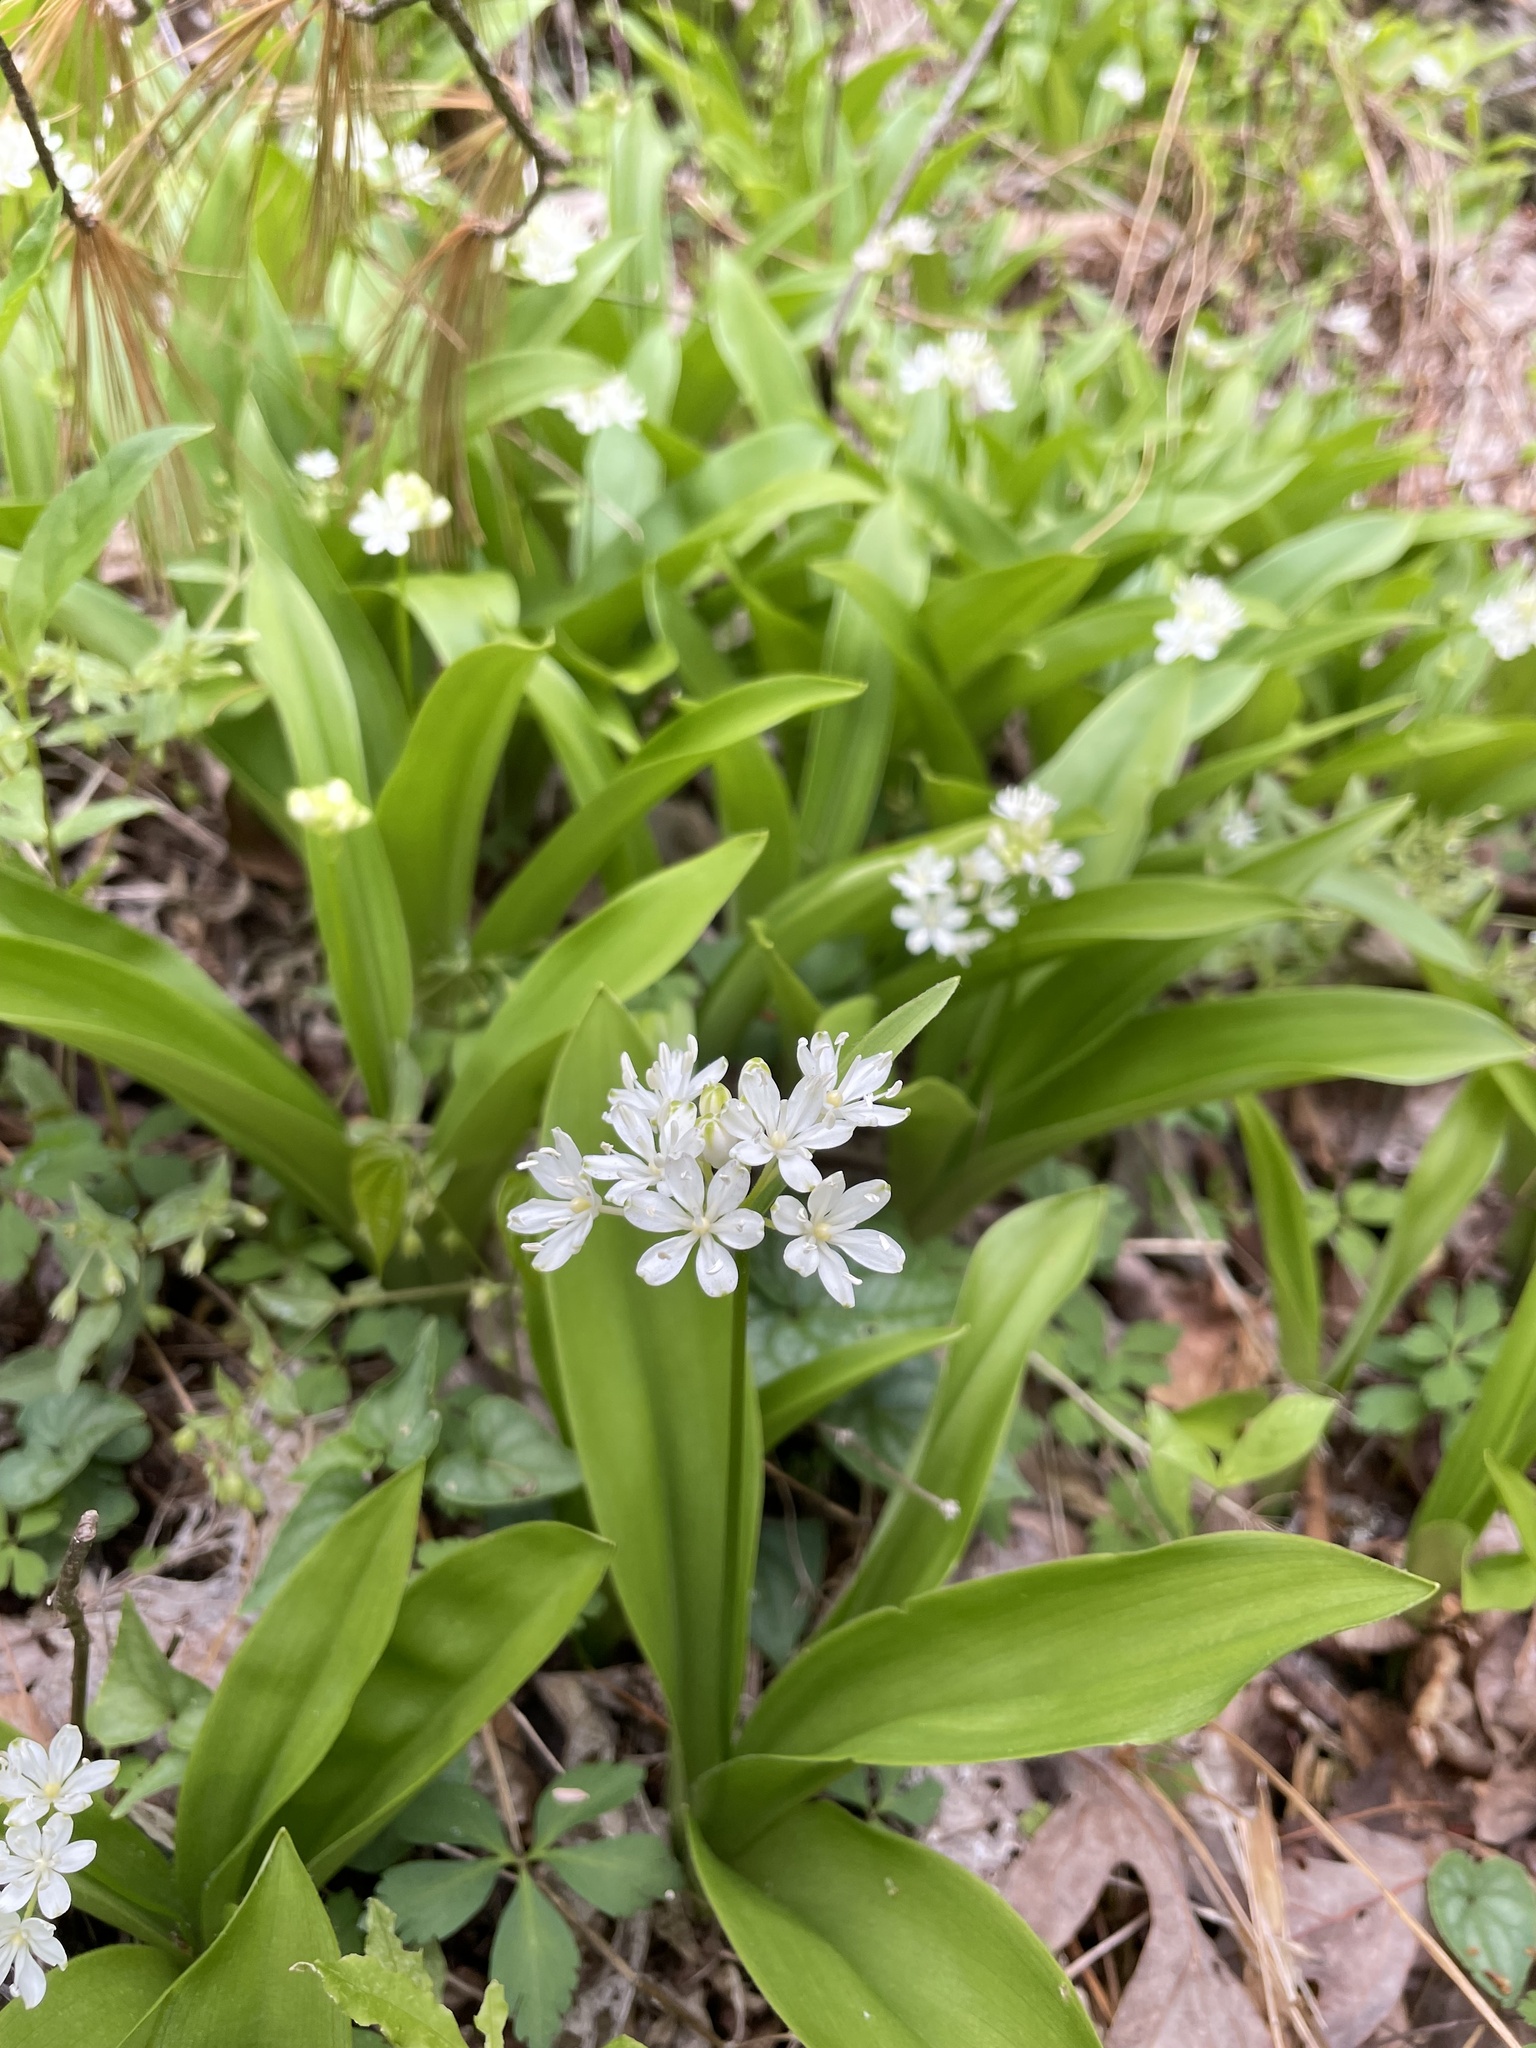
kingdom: Plantae
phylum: Tracheophyta
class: Liliopsida
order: Liliales
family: Liliaceae
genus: Clintonia
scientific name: Clintonia umbellulata
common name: Speckle wood-lily
